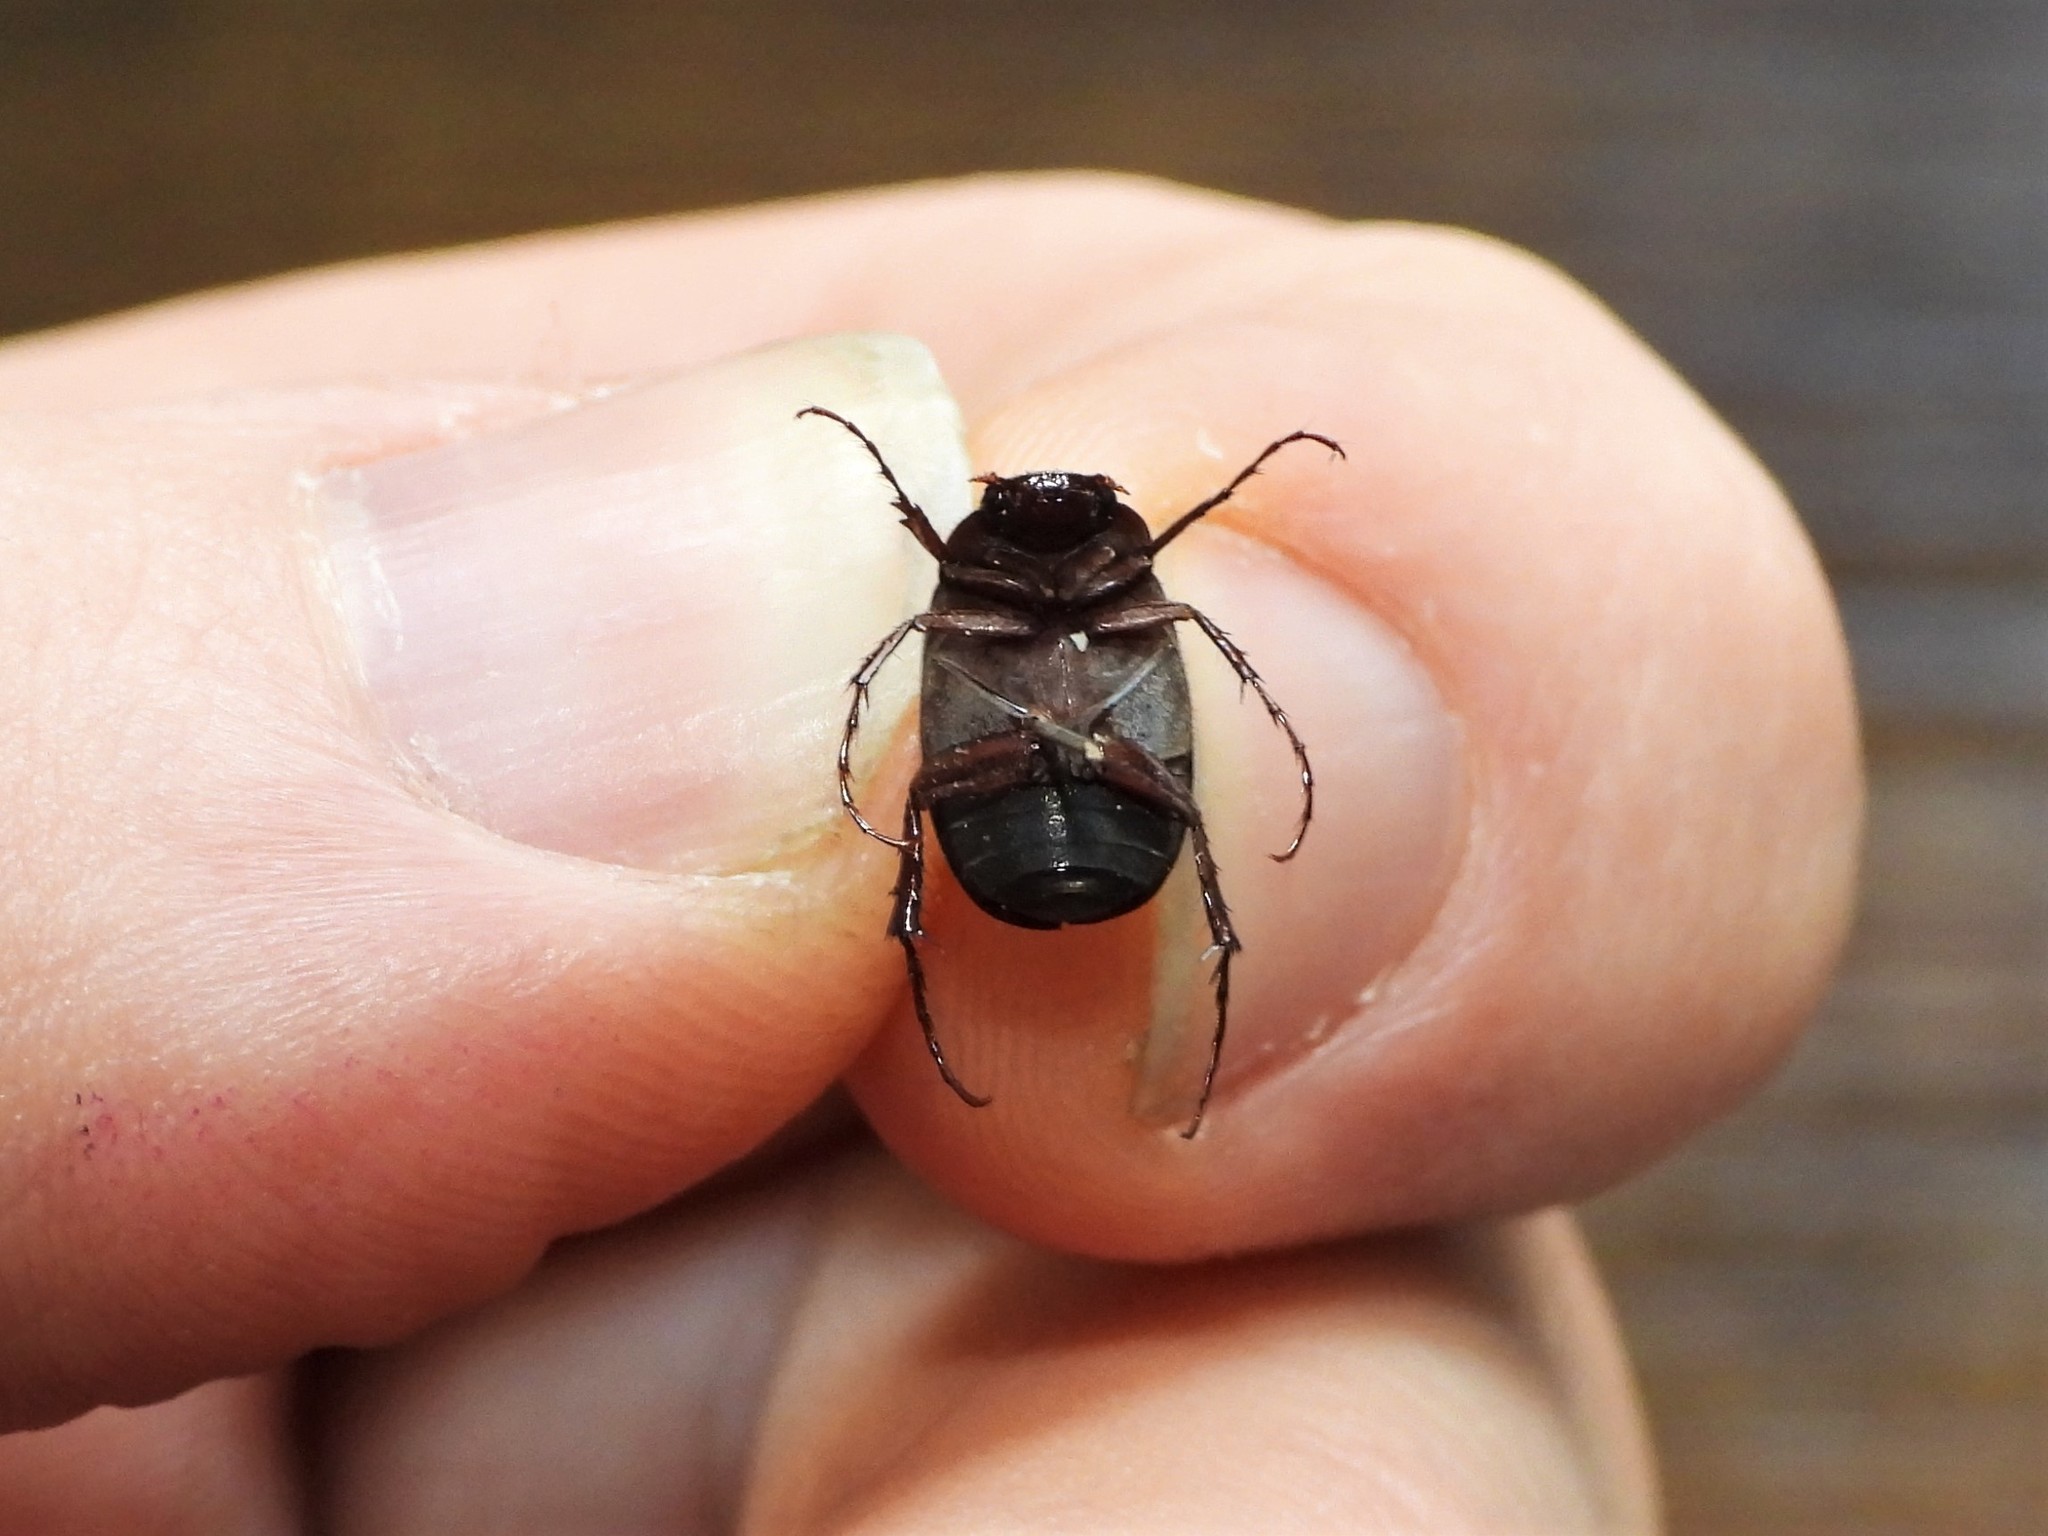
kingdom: Animalia
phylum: Arthropoda
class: Insecta
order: Coleoptera
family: Scarabaeidae
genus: Maladera
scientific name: Maladera holosericea
